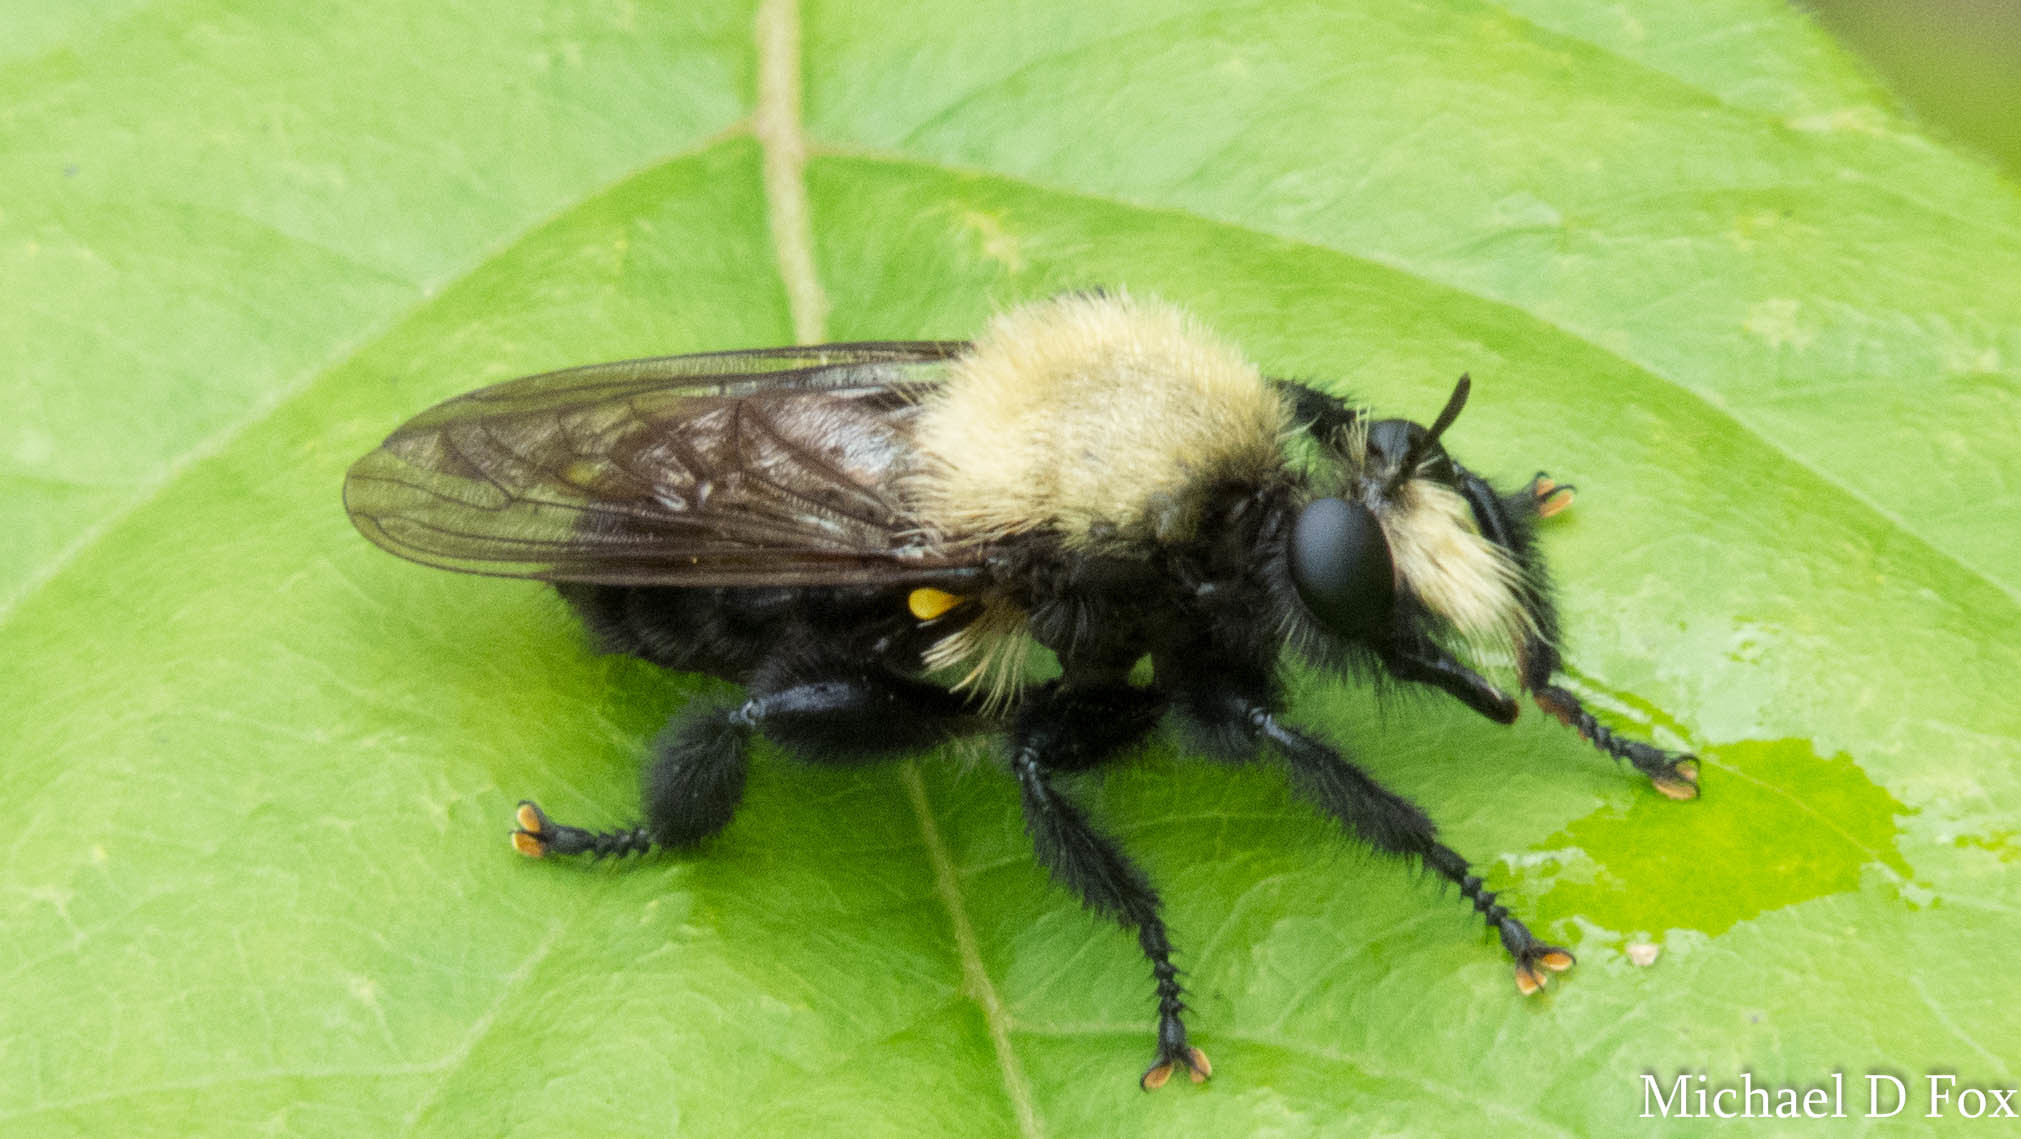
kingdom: Animalia
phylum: Arthropoda
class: Insecta
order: Diptera
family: Asilidae
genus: Laphria
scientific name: Laphria flavicollis
